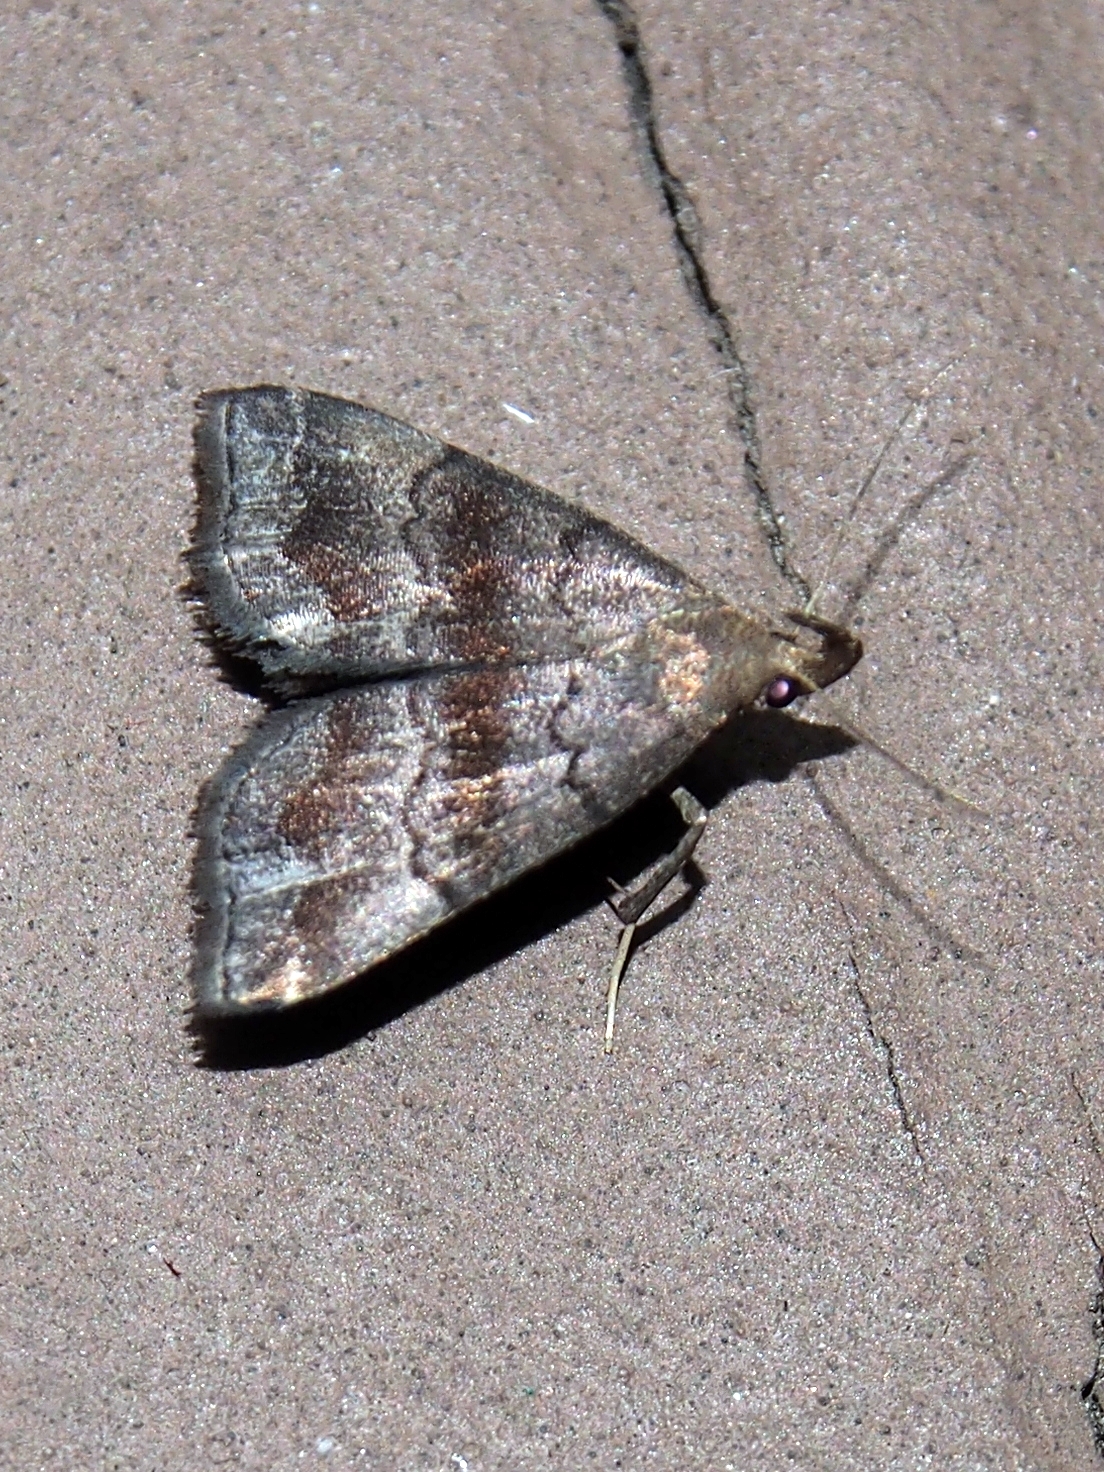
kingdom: Animalia
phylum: Arthropoda
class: Insecta
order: Lepidoptera
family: Erebidae
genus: Phalaenostola
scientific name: Phalaenostola larentioides
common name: Black-banded owlet
